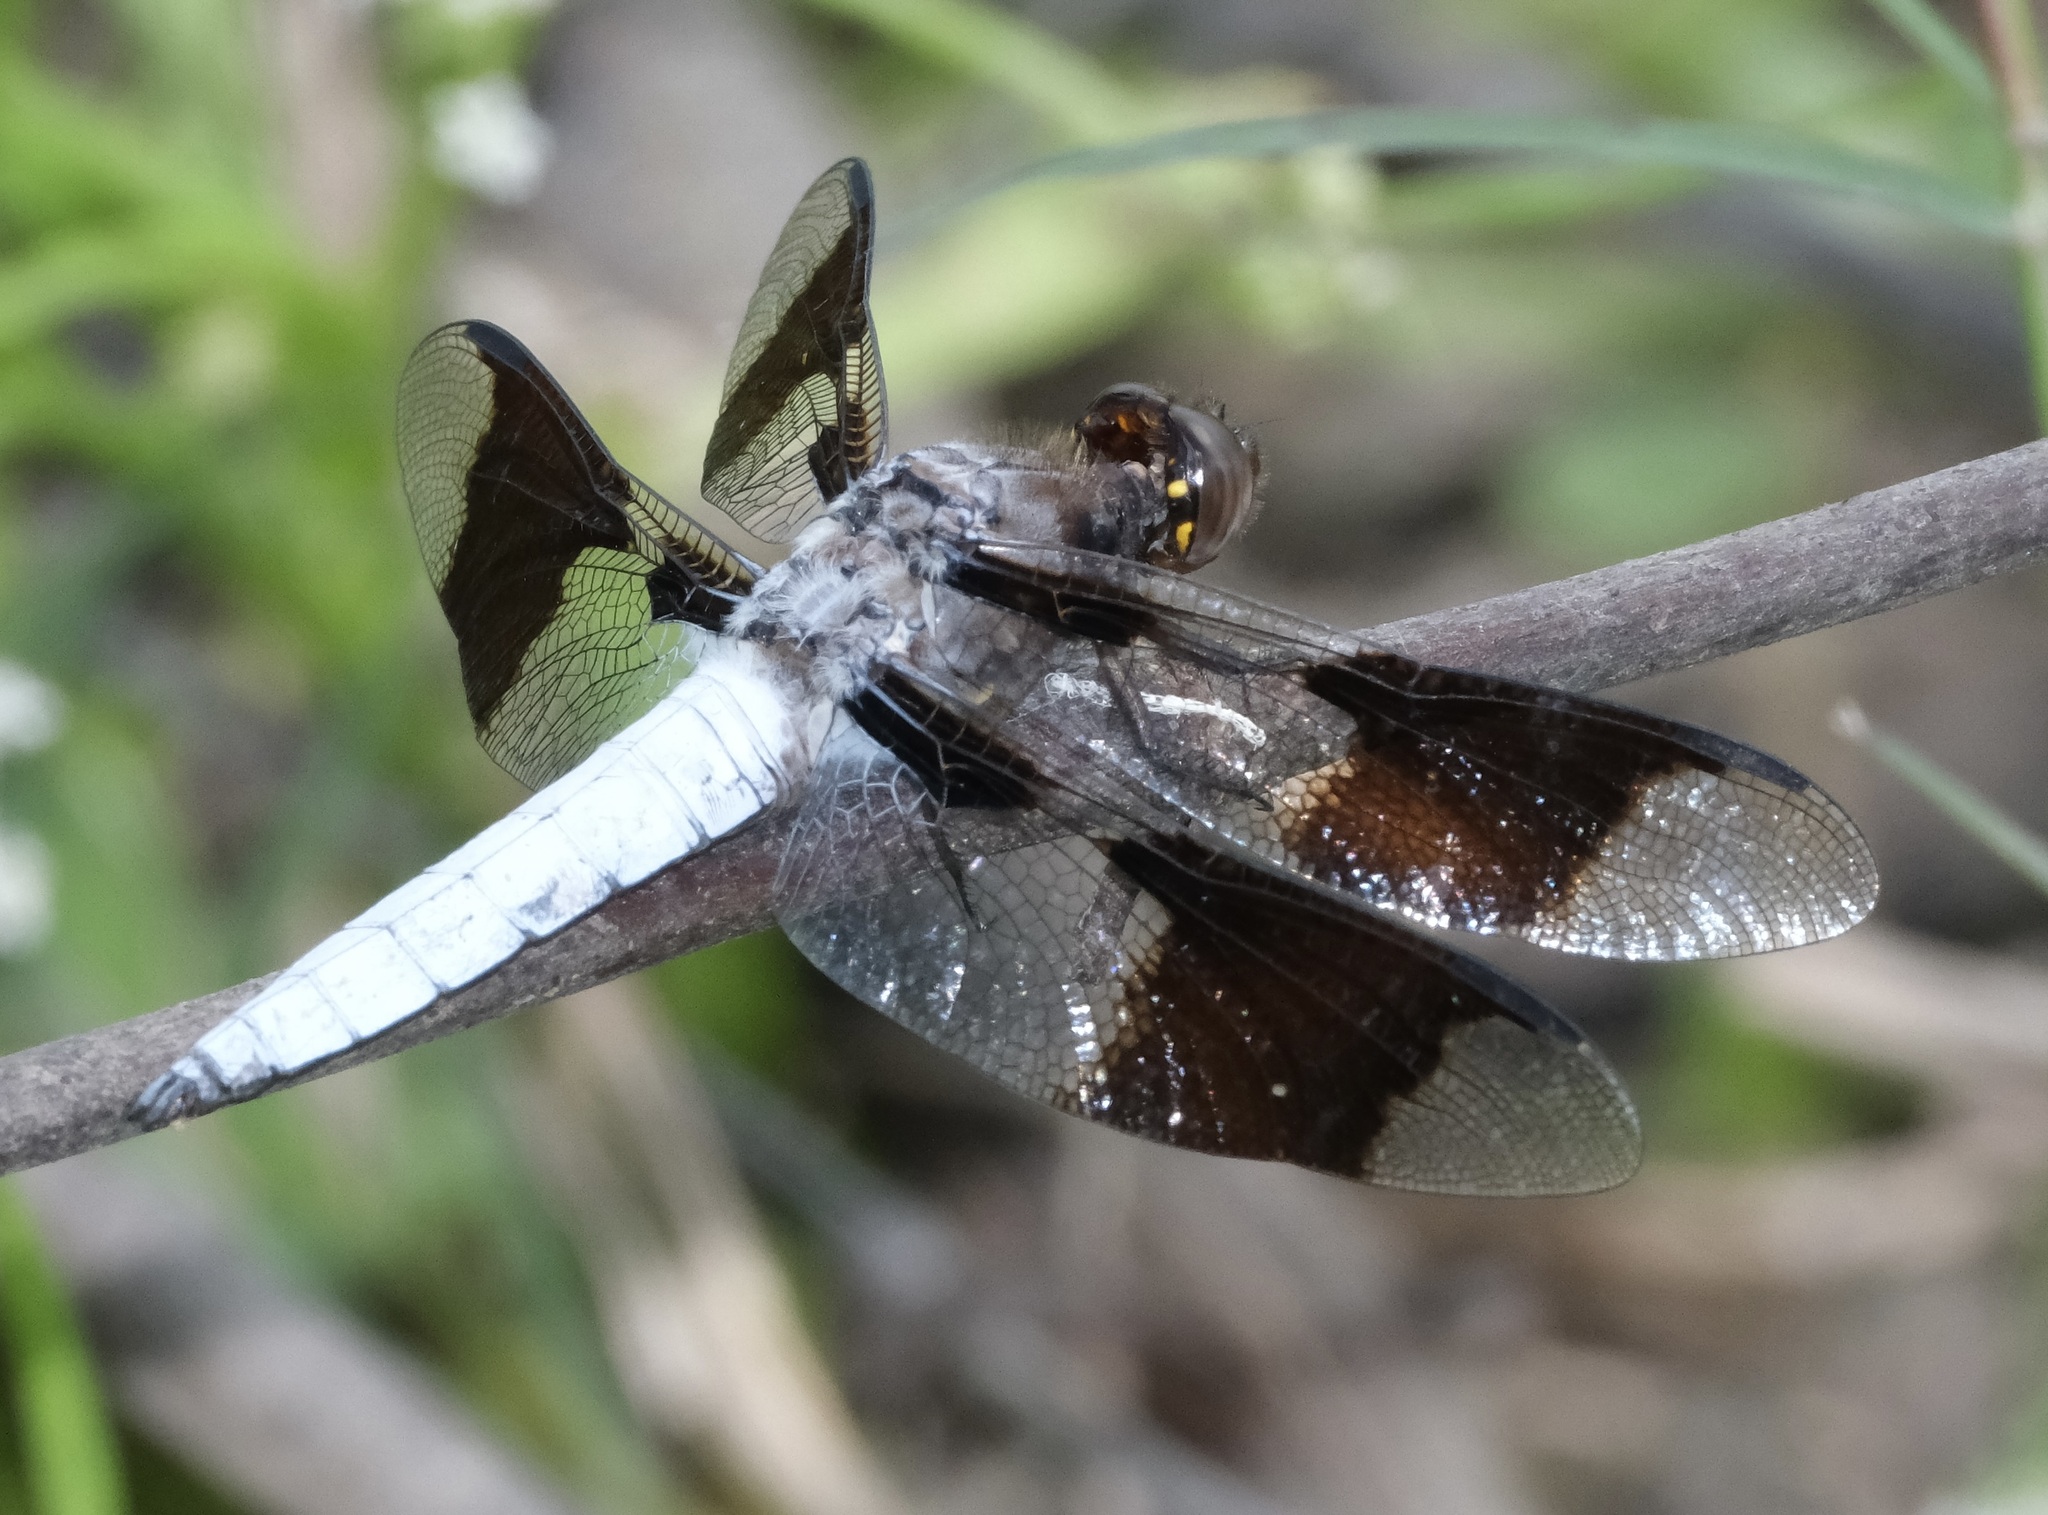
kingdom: Animalia
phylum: Arthropoda
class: Insecta
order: Odonata
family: Libellulidae
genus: Plathemis
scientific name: Plathemis lydia
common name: Common whitetail
